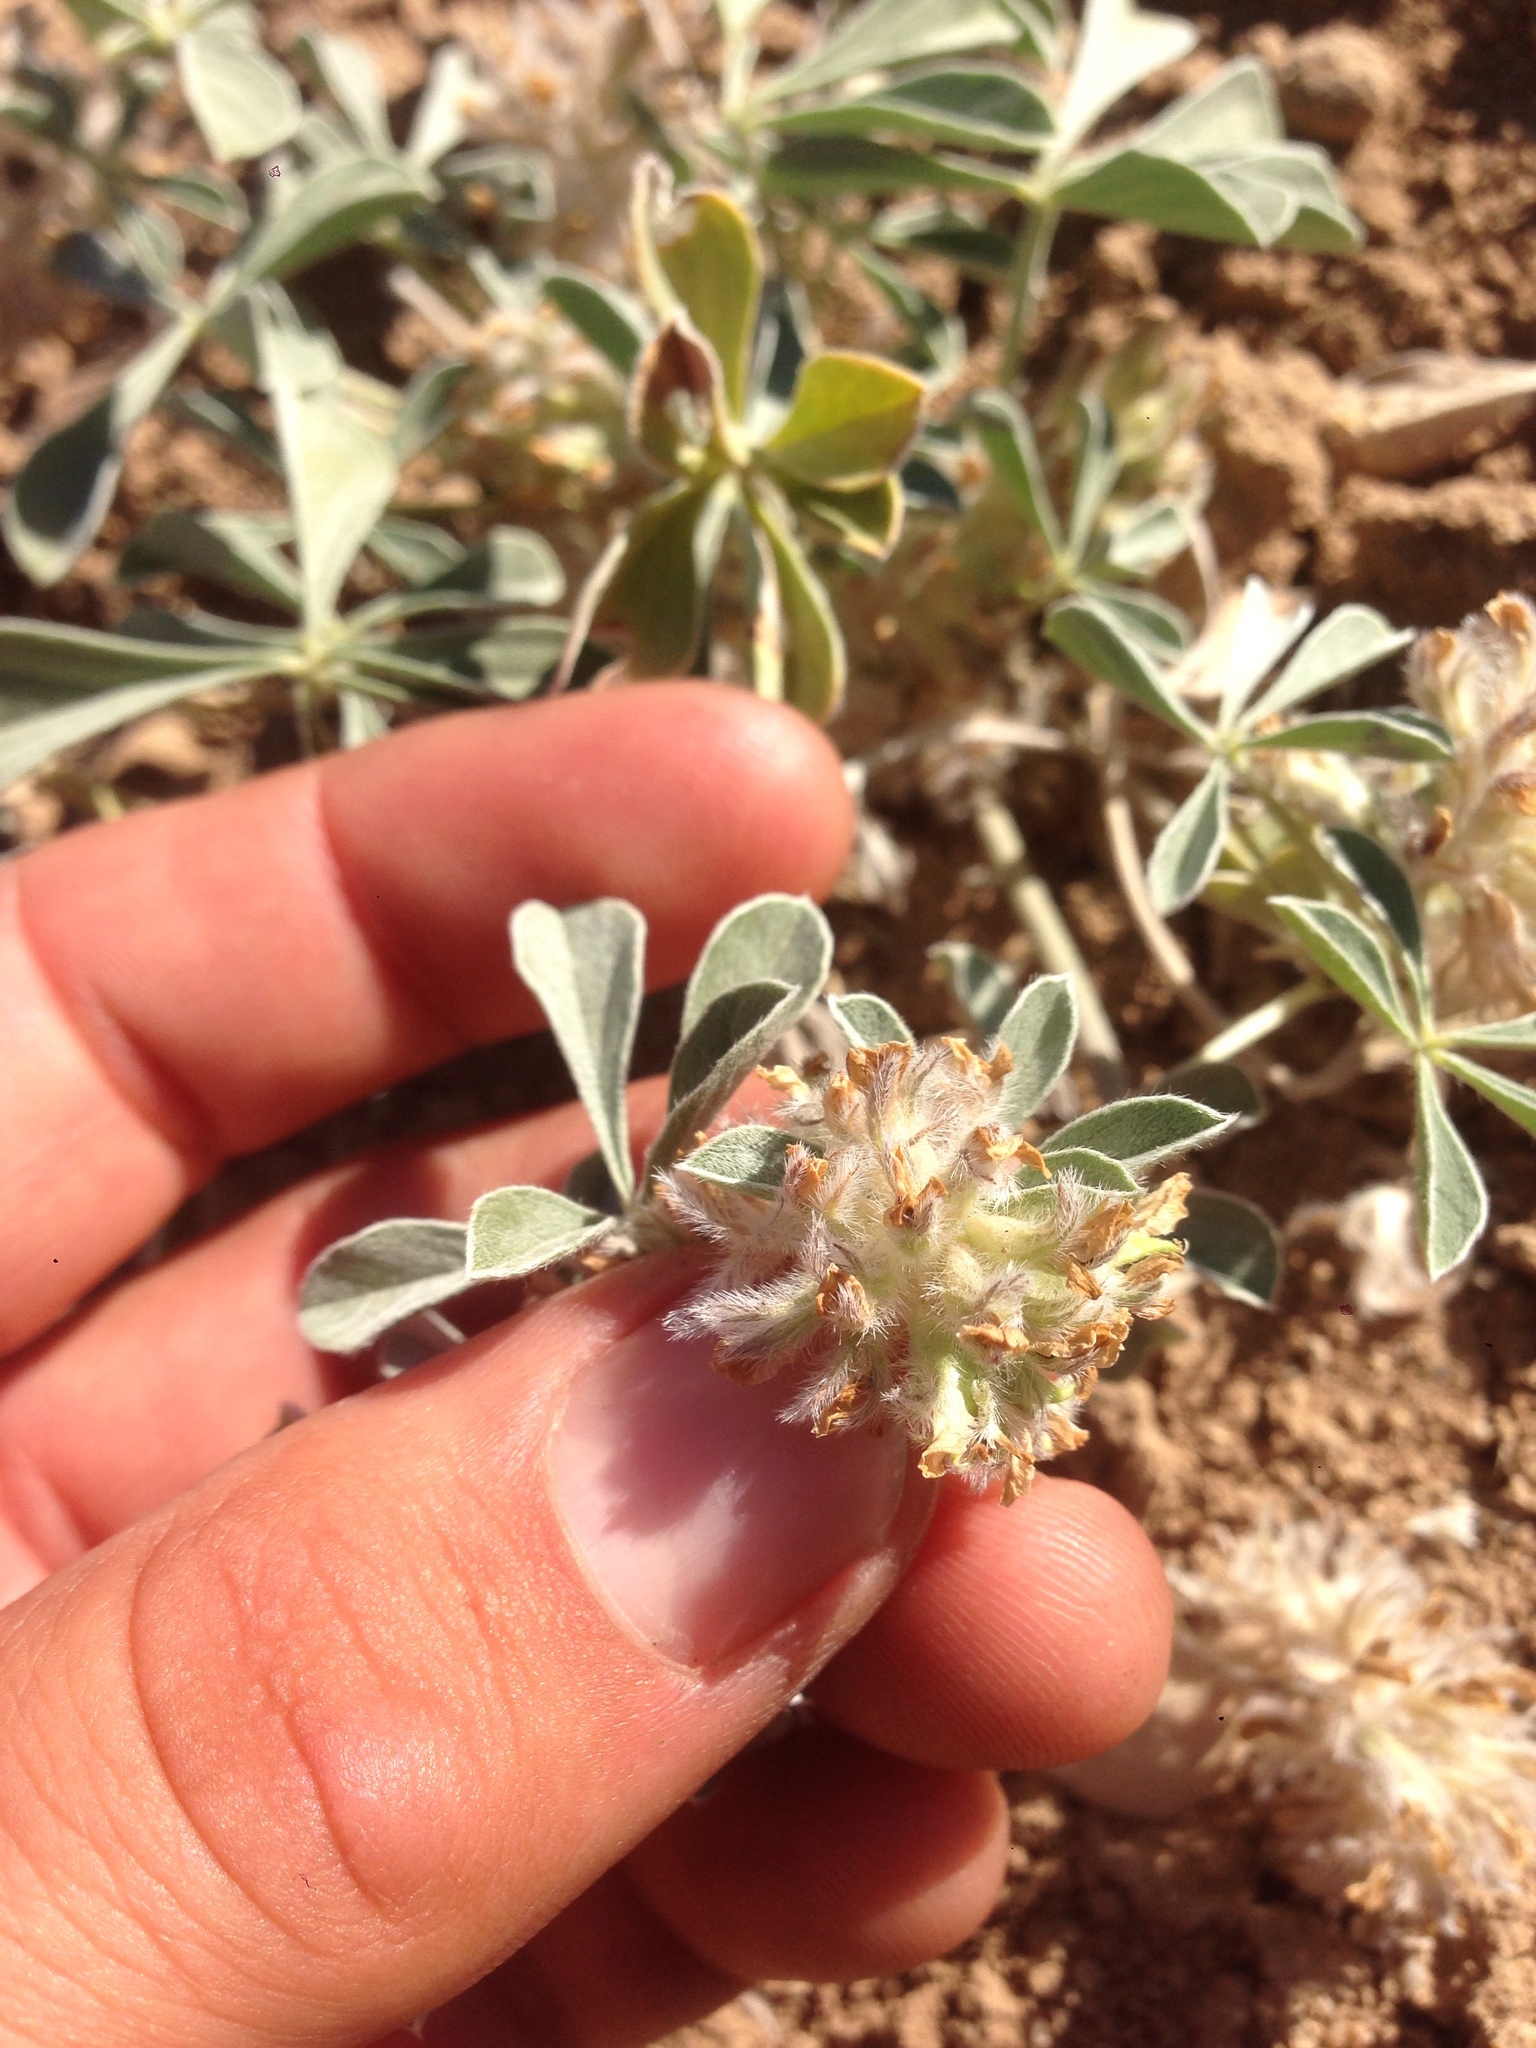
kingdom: Plantae
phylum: Tracheophyta
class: Magnoliopsida
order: Fabales
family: Fabaceae
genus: Pediomelum
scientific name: Pediomelum californicum
